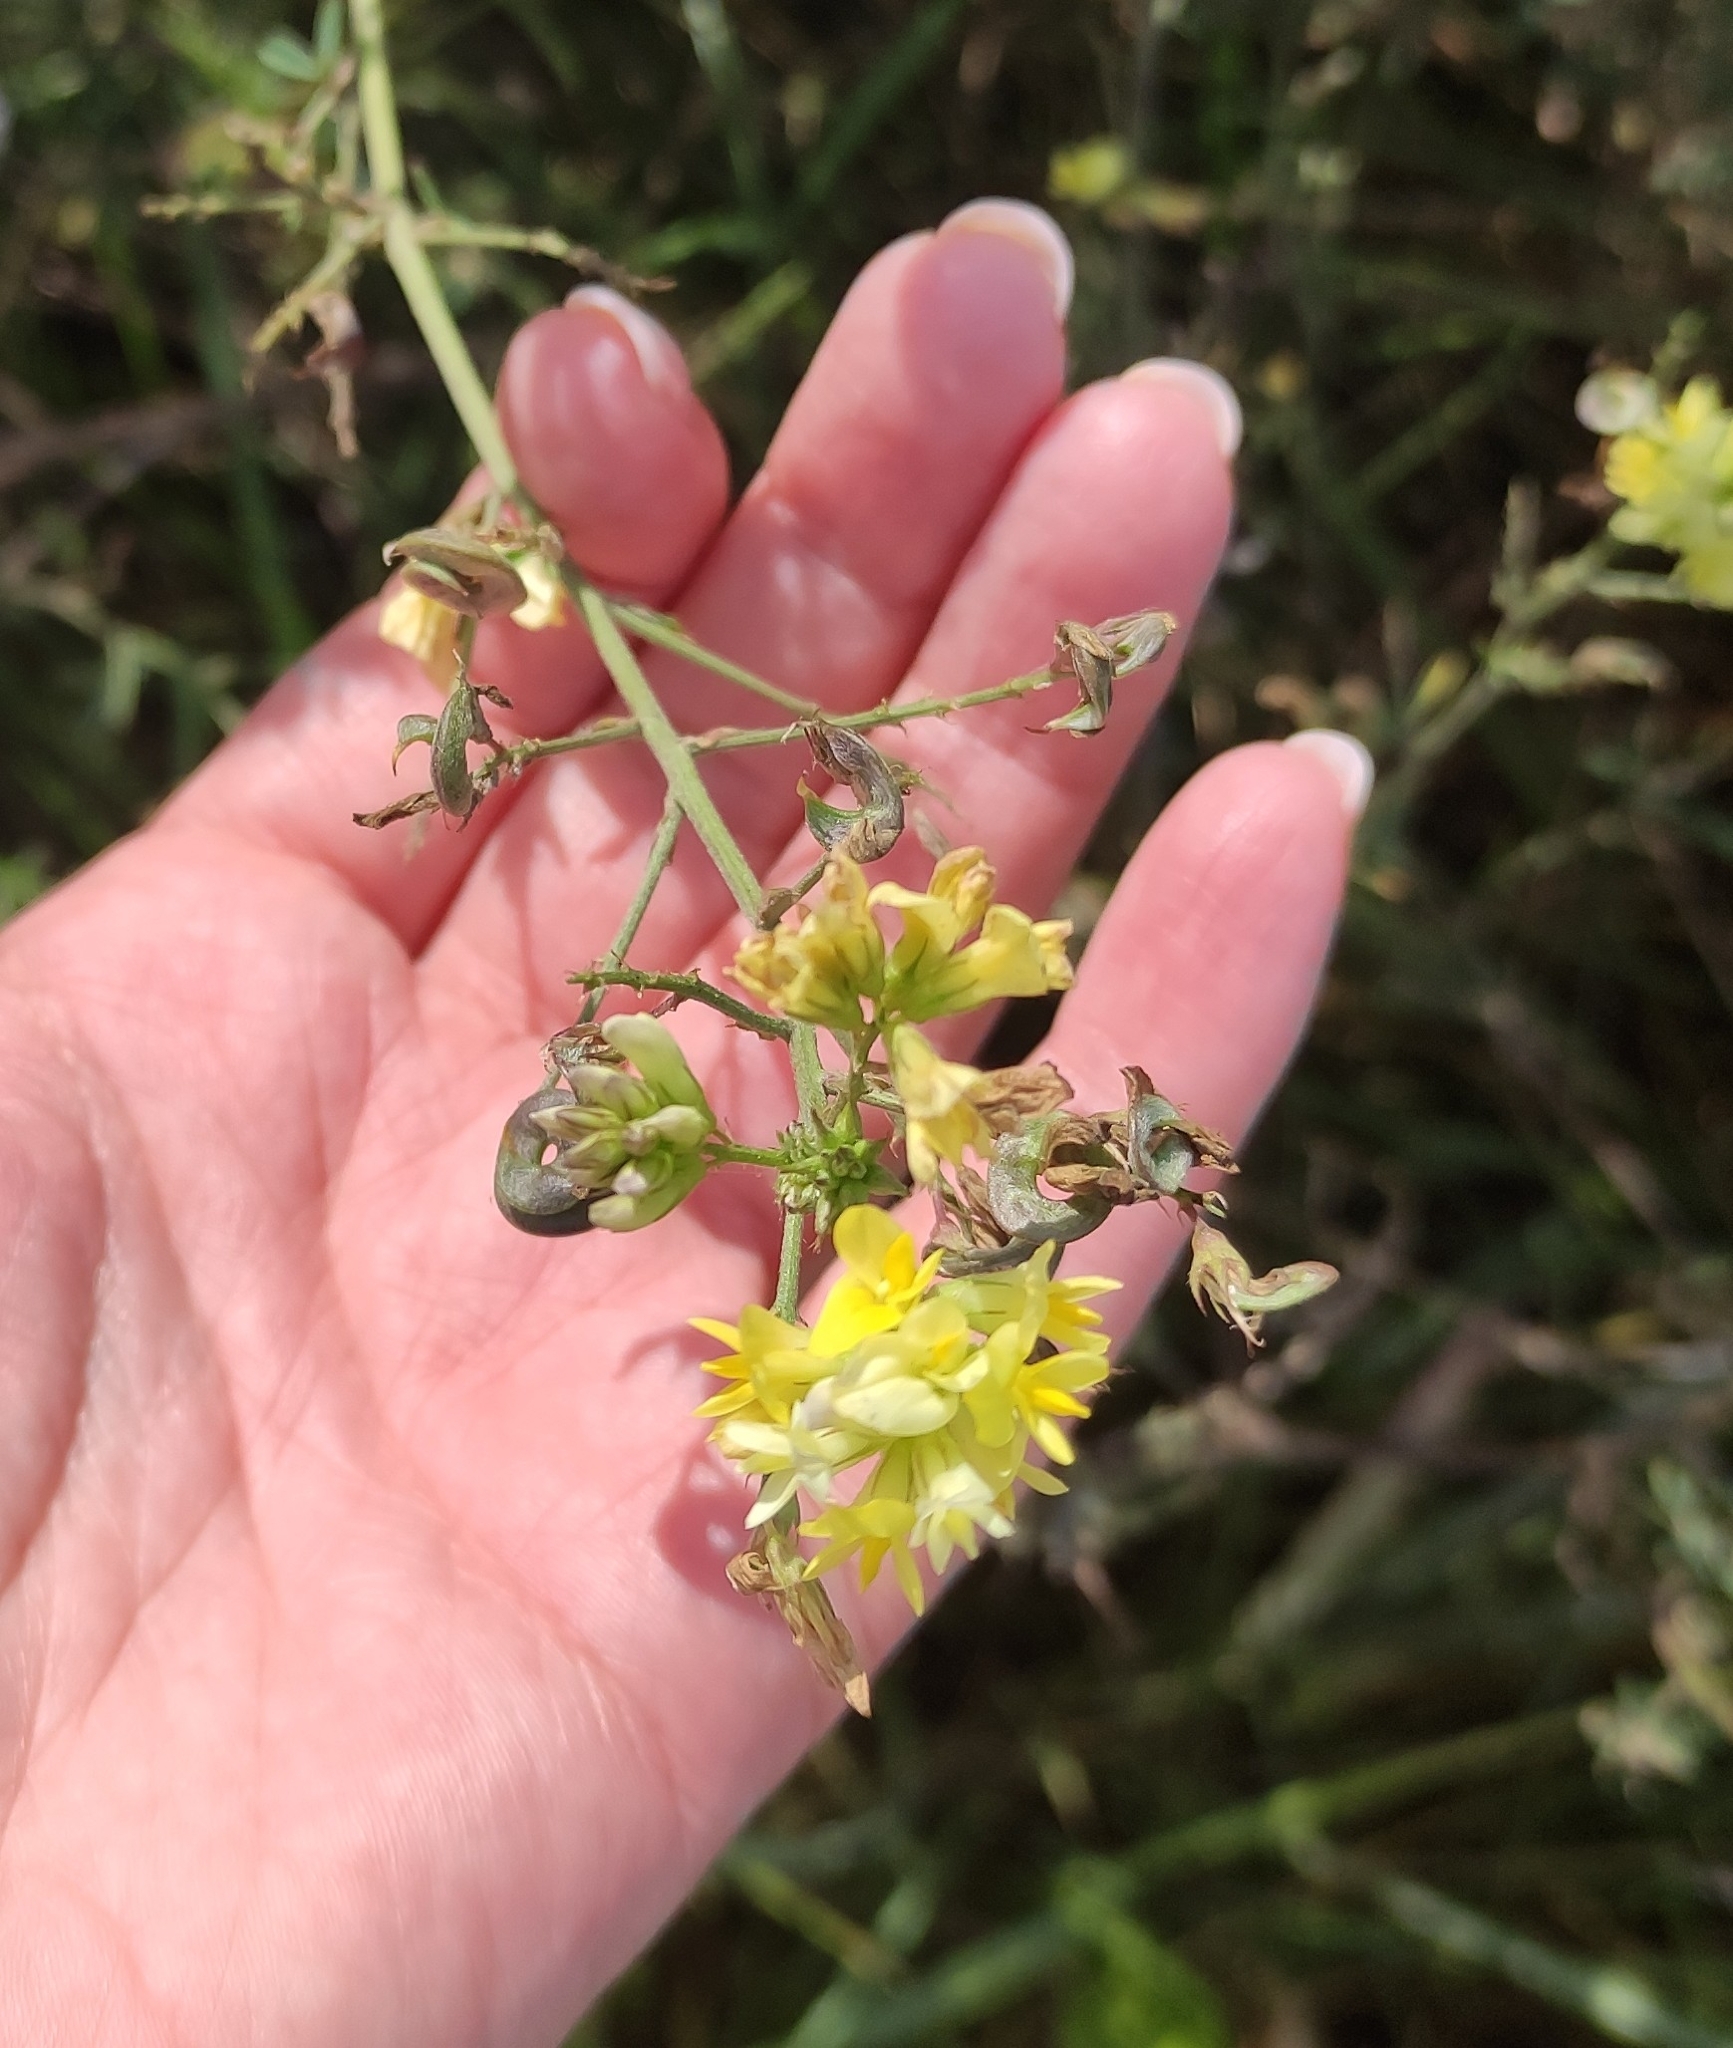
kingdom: Plantae
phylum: Tracheophyta
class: Magnoliopsida
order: Fabales
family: Fabaceae
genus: Medicago
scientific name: Medicago varia
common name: Sand lucerne
